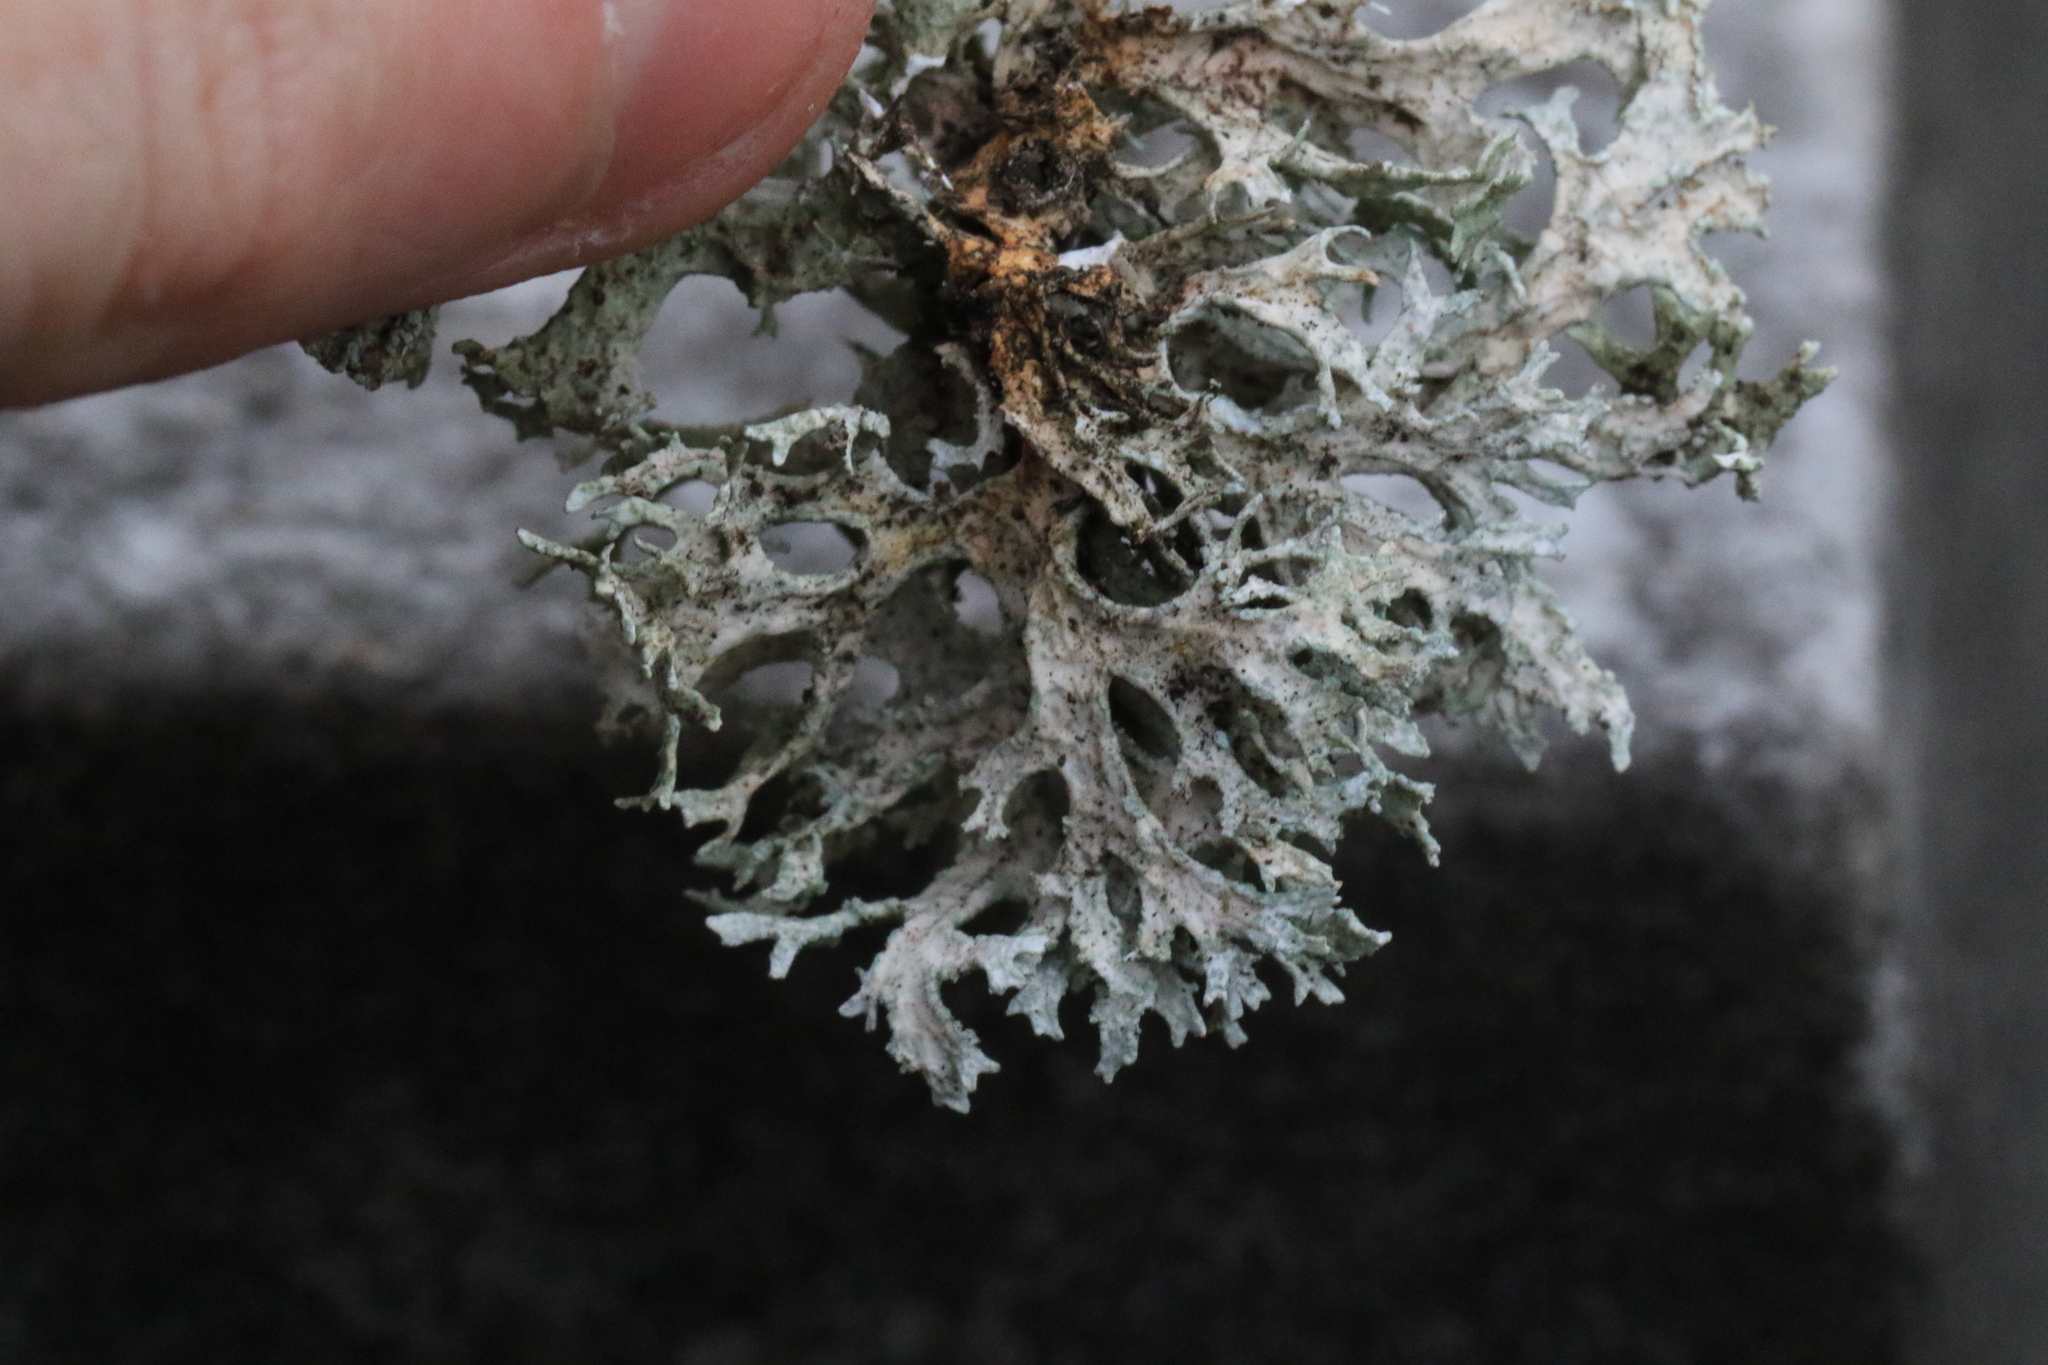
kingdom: Fungi
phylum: Ascomycota
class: Lecanoromycetes
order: Lecanorales
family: Parmeliaceae
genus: Evernia
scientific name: Evernia prunastri
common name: Oak moss
